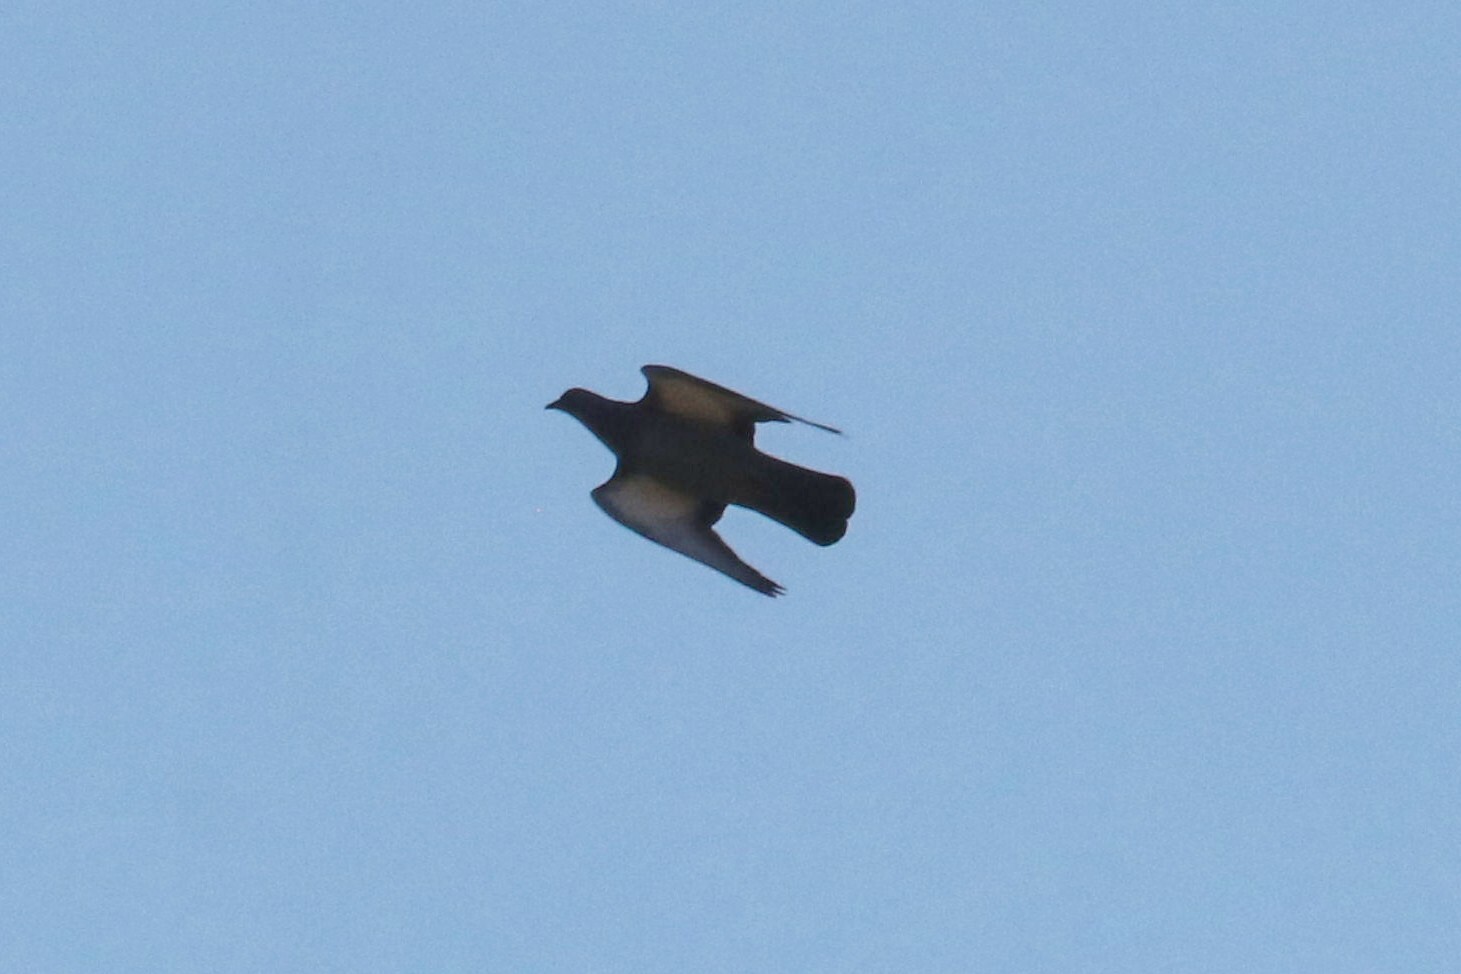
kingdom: Animalia
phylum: Chordata
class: Aves
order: Columbiformes
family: Columbidae
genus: Columba
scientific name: Columba livia
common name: Rock pigeon
